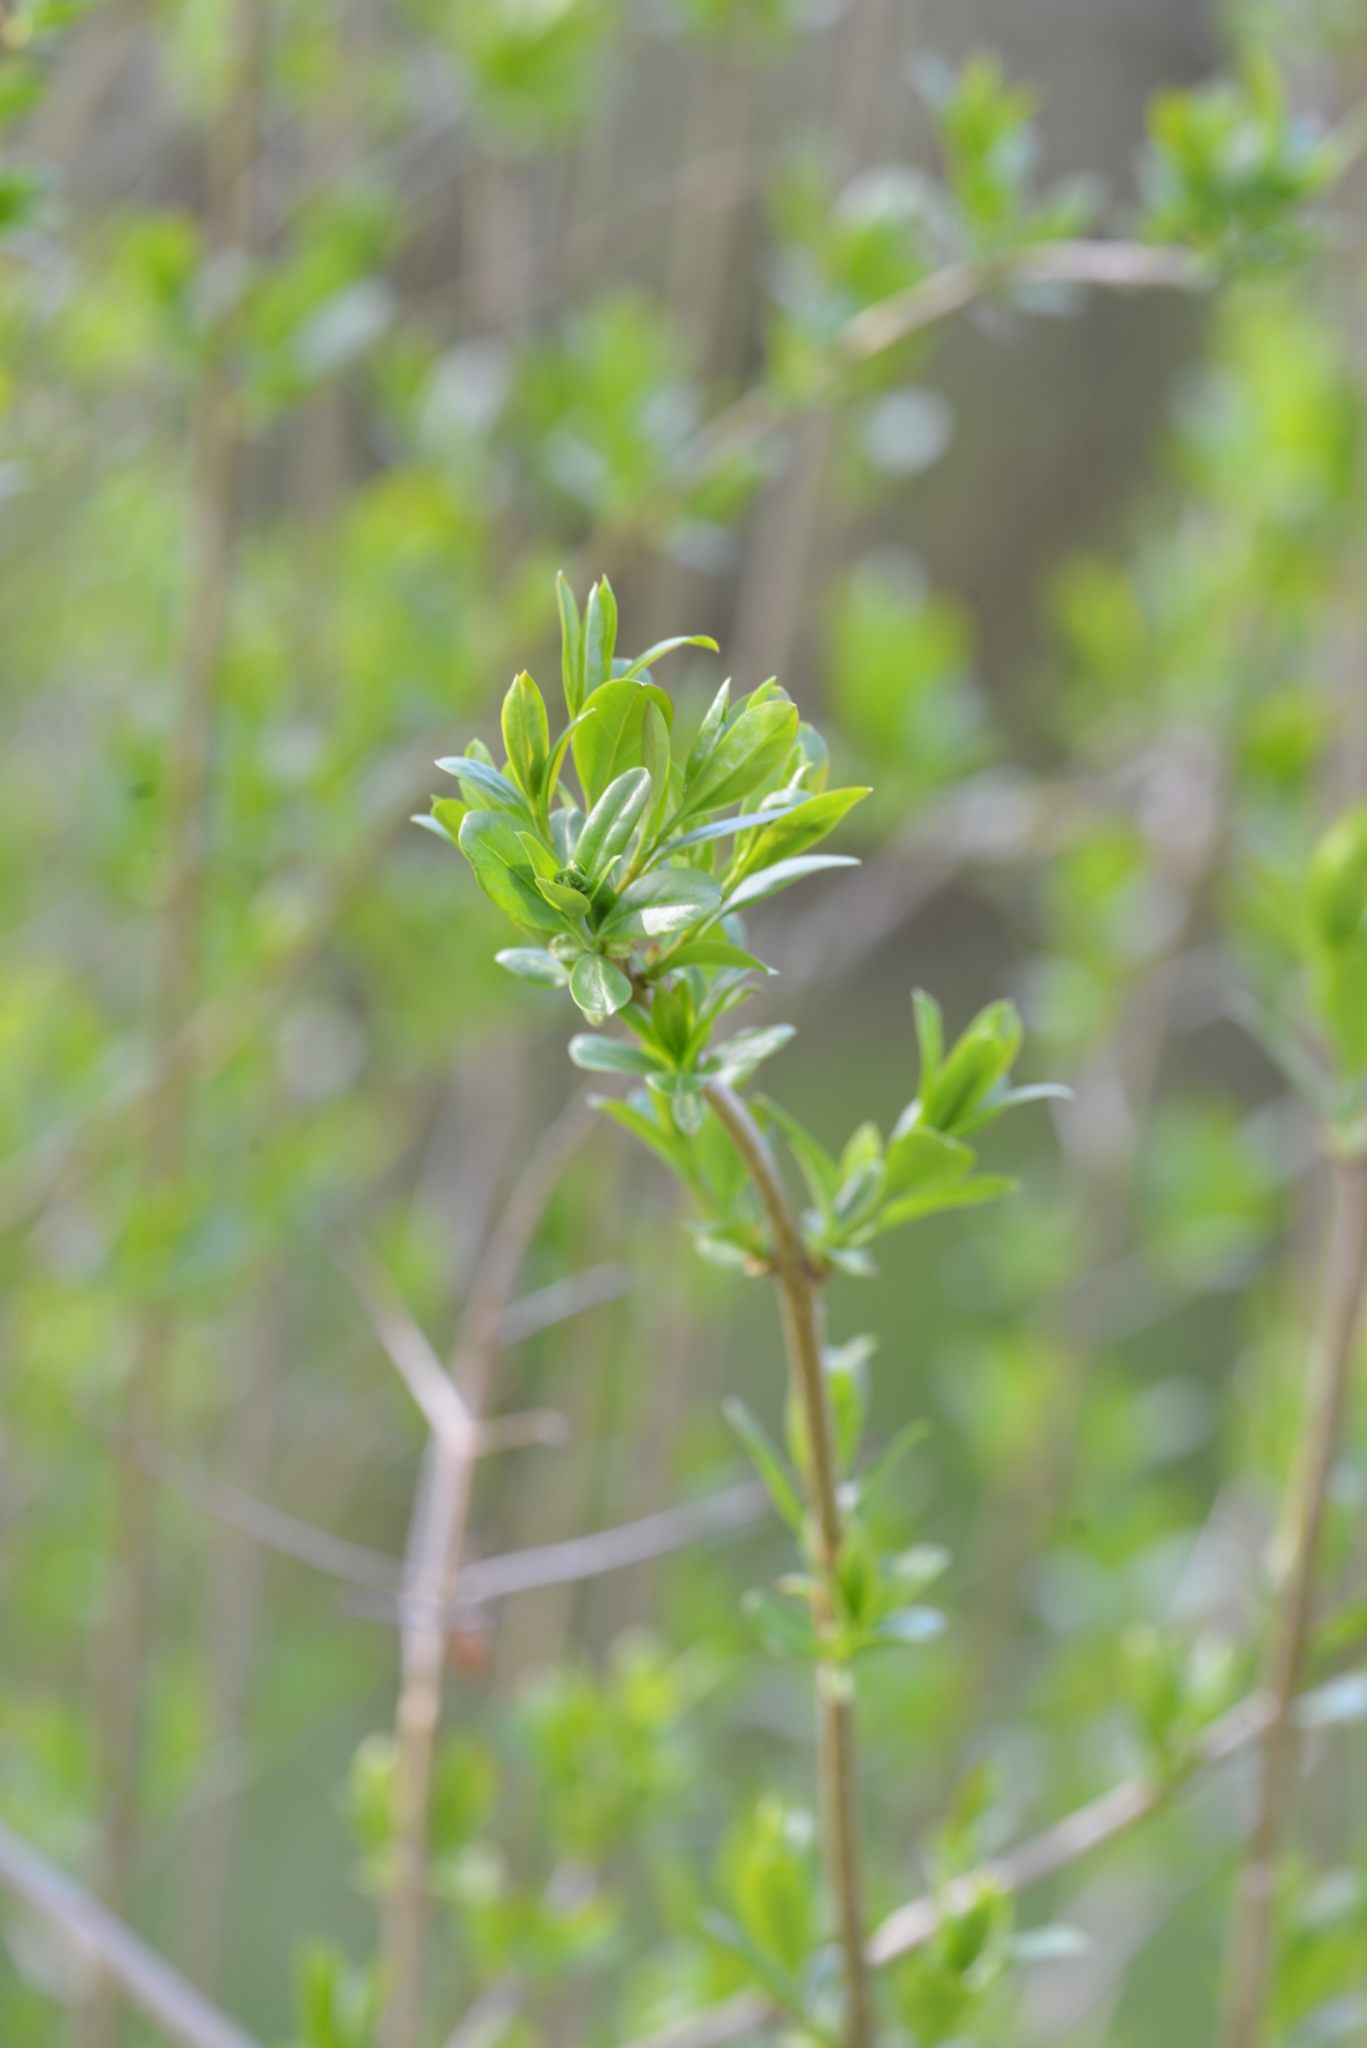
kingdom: Plantae
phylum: Tracheophyta
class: Magnoliopsida
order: Lamiales
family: Oleaceae
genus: Ligustrum
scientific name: Ligustrum vulgare
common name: Wild privet
